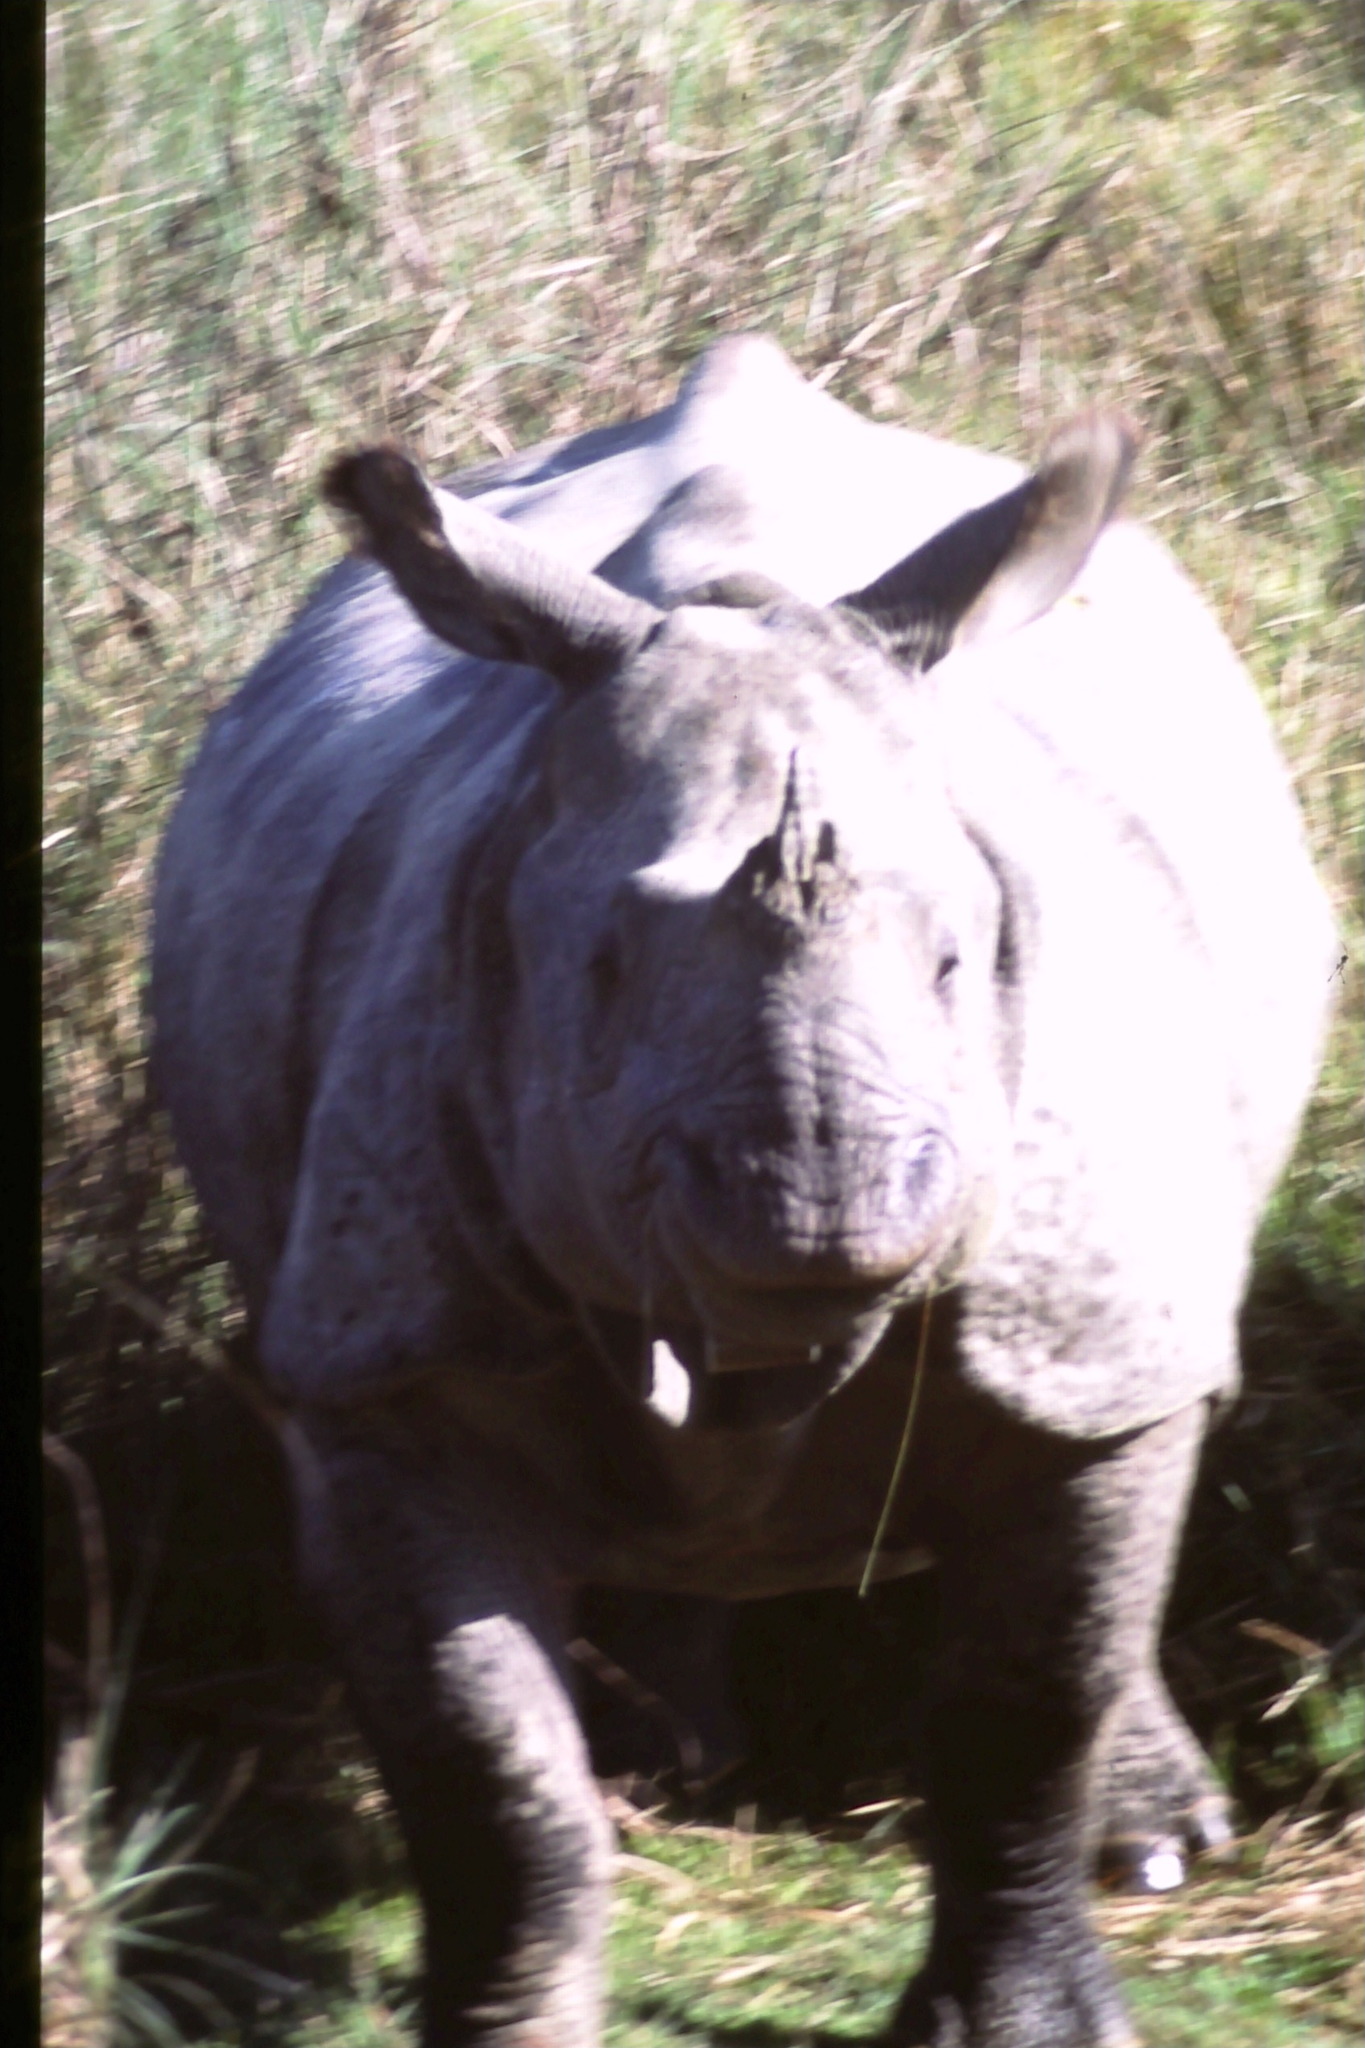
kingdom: Animalia
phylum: Chordata
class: Mammalia
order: Perissodactyla
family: Rhinocerotidae
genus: Rhinoceros
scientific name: Rhinoceros unicornis
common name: Indian rhinoceros
